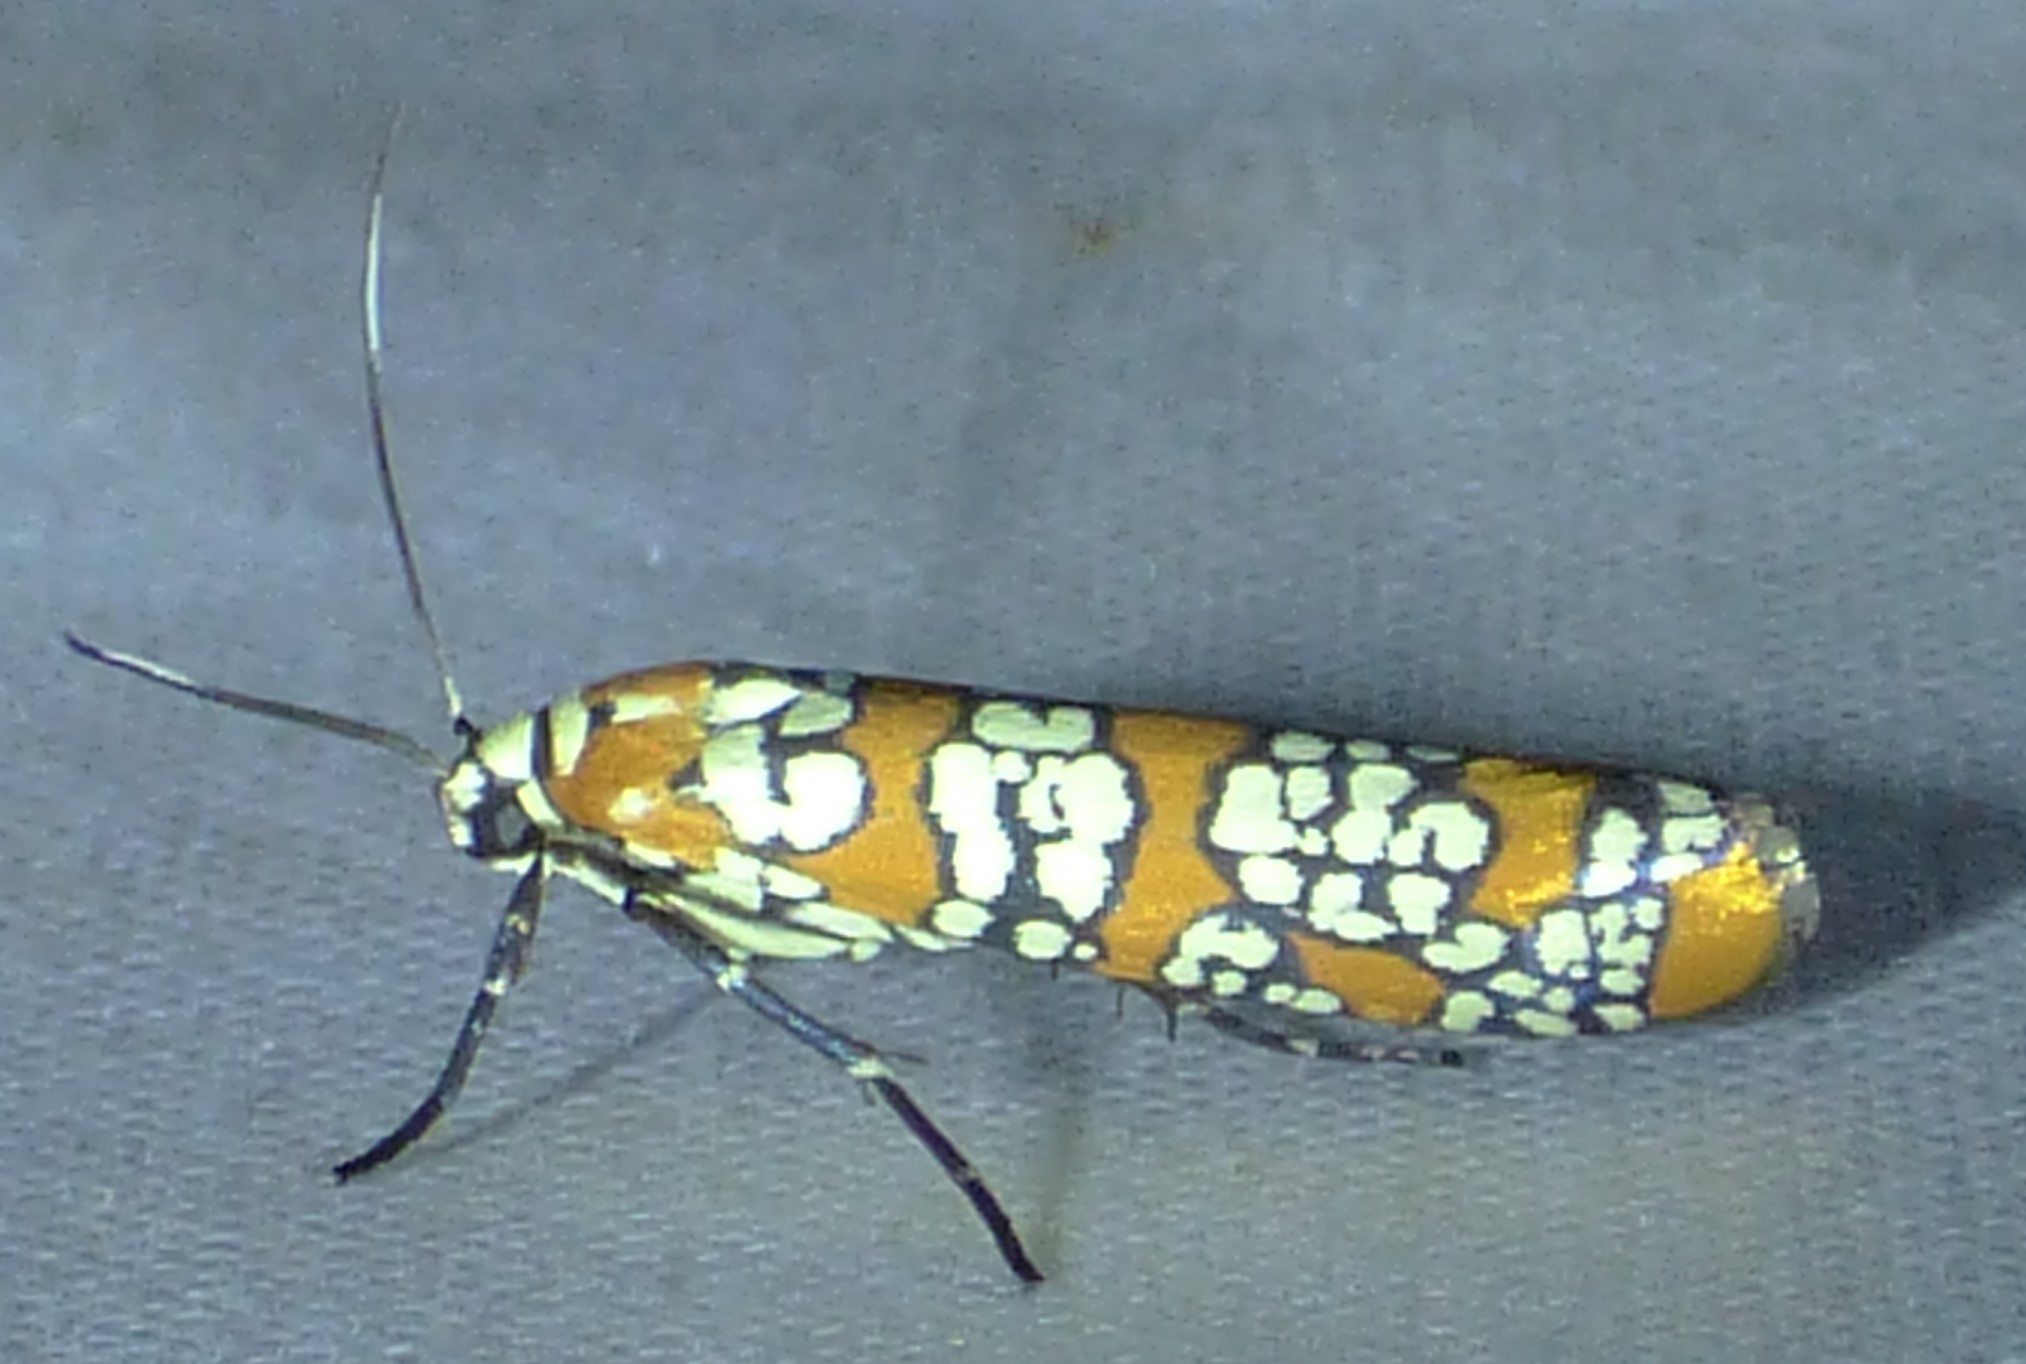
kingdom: Animalia
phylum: Arthropoda
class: Insecta
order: Lepidoptera
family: Attevidae
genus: Atteva
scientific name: Atteva punctella
